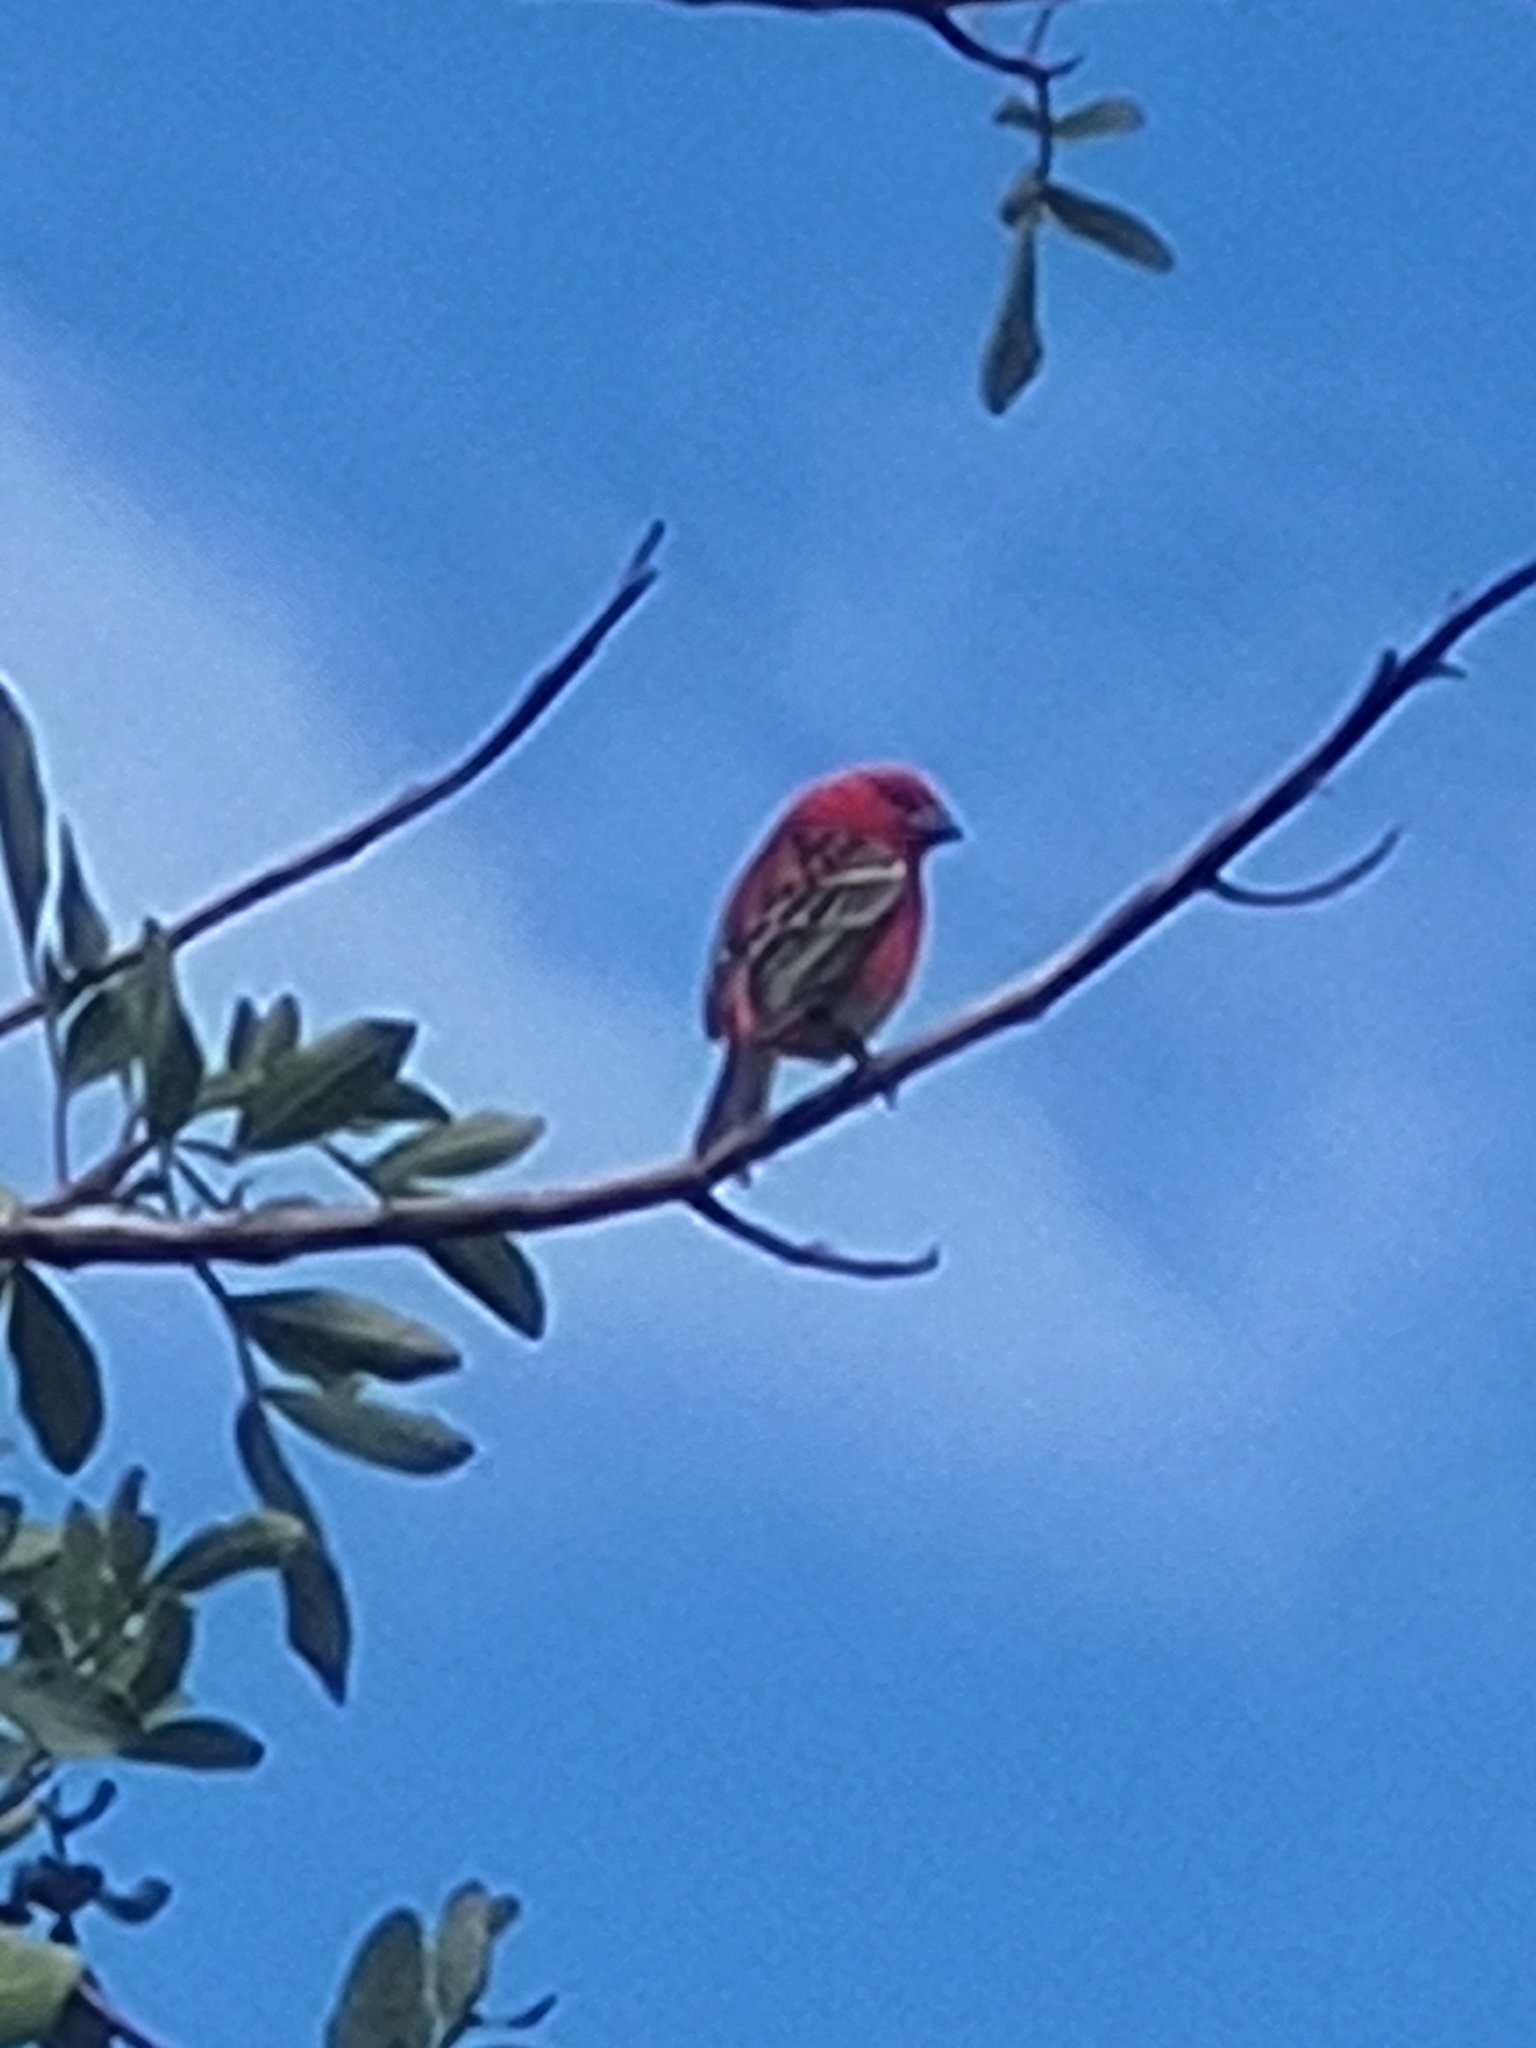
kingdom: Animalia
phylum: Chordata
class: Aves
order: Passeriformes
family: Ploceidae
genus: Foudia
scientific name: Foudia madagascariensis
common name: Red fody
